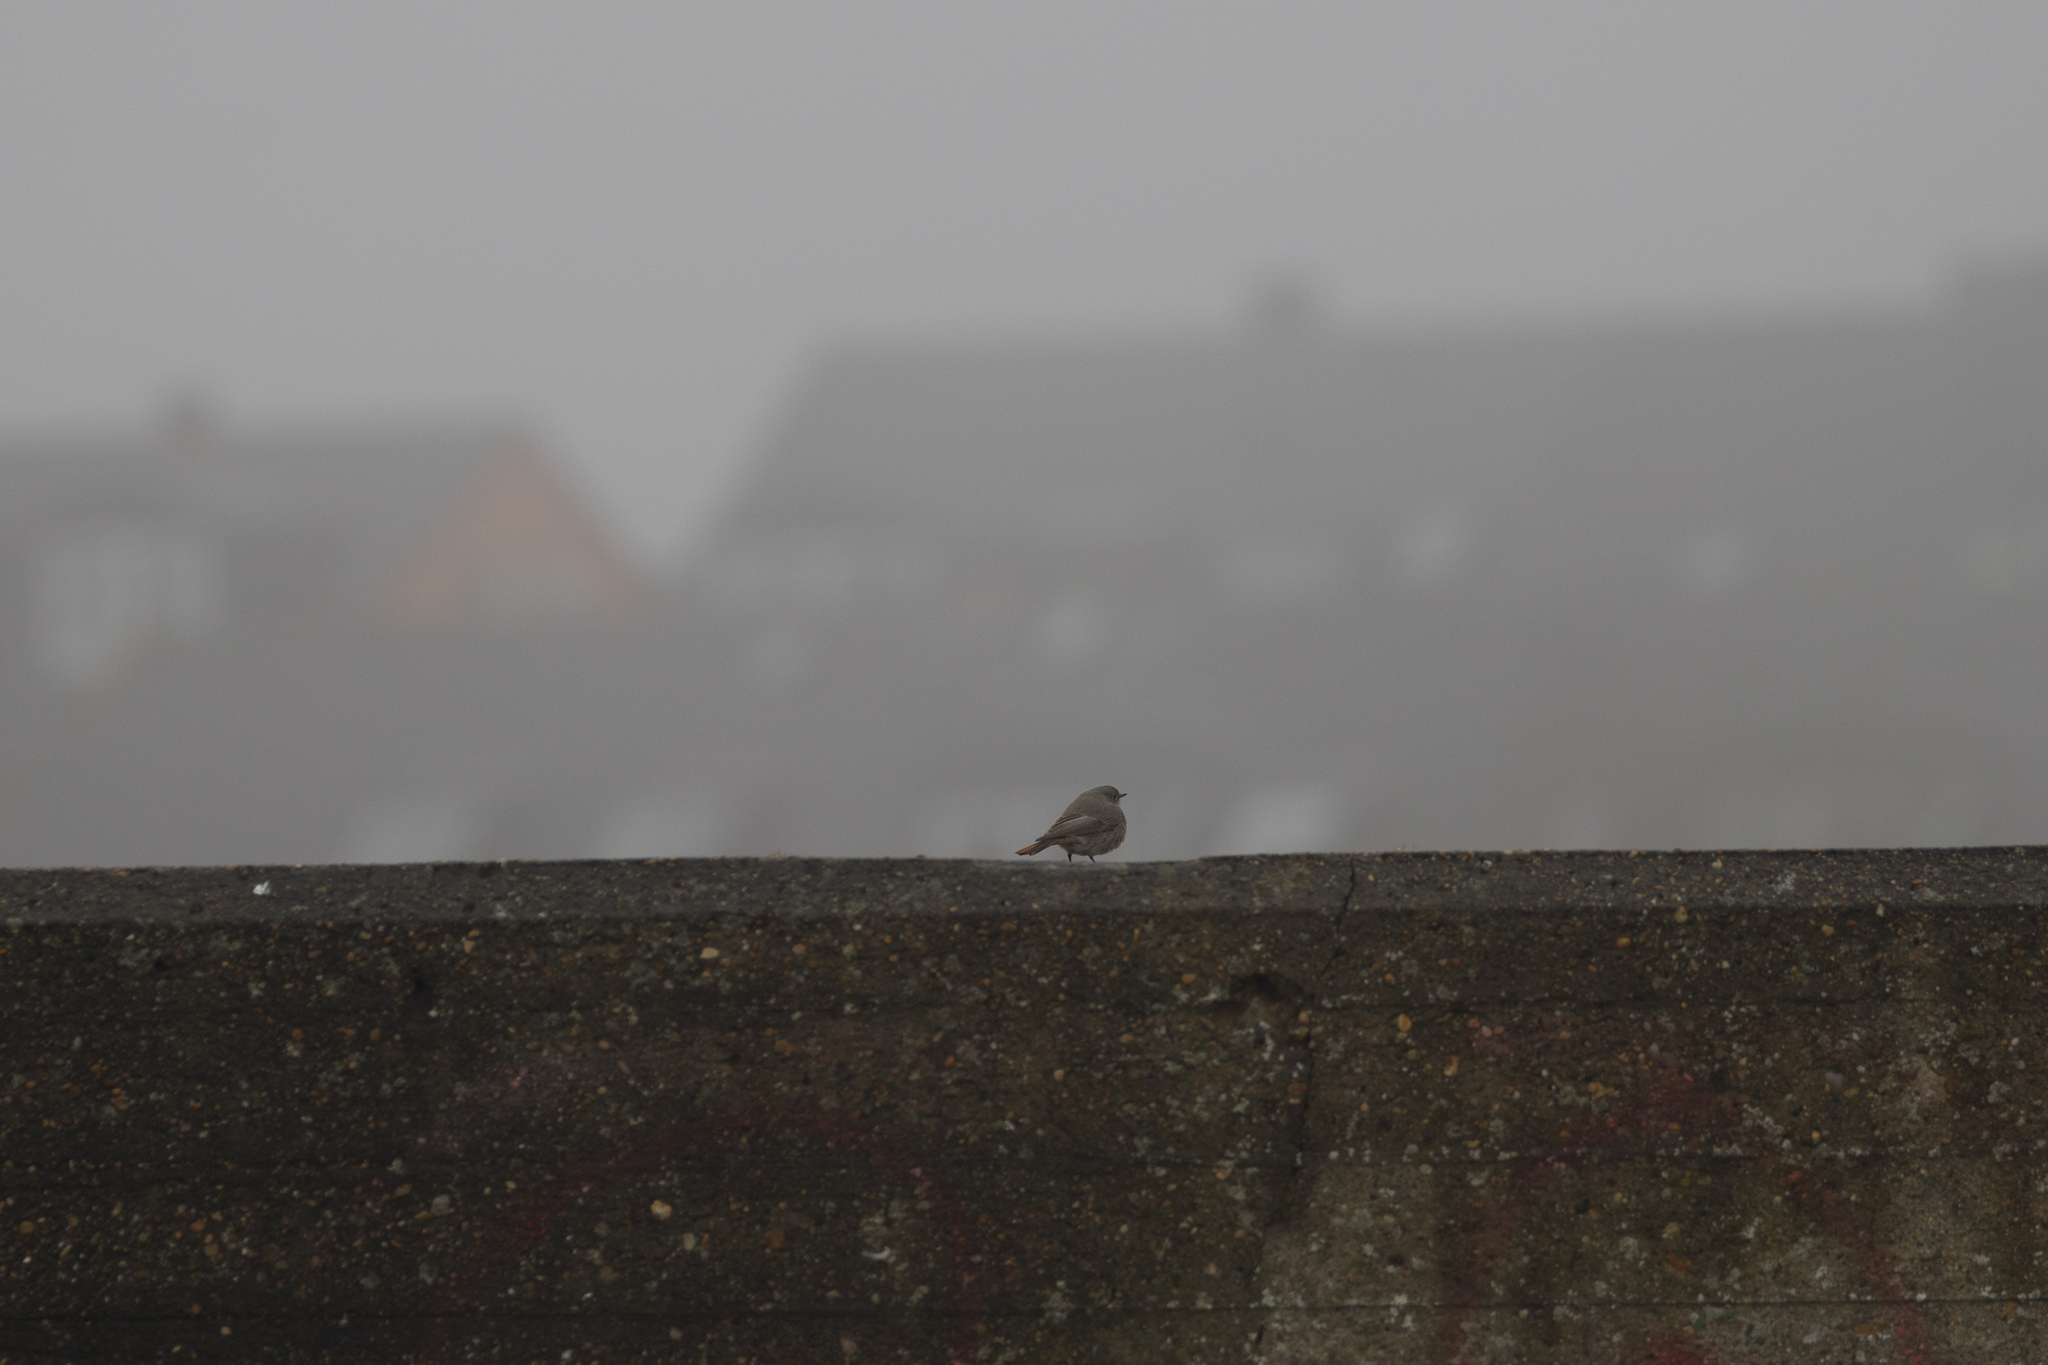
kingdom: Animalia
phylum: Chordata
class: Aves
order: Passeriformes
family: Muscicapidae
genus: Phoenicurus
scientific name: Phoenicurus ochruros
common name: Black redstart
